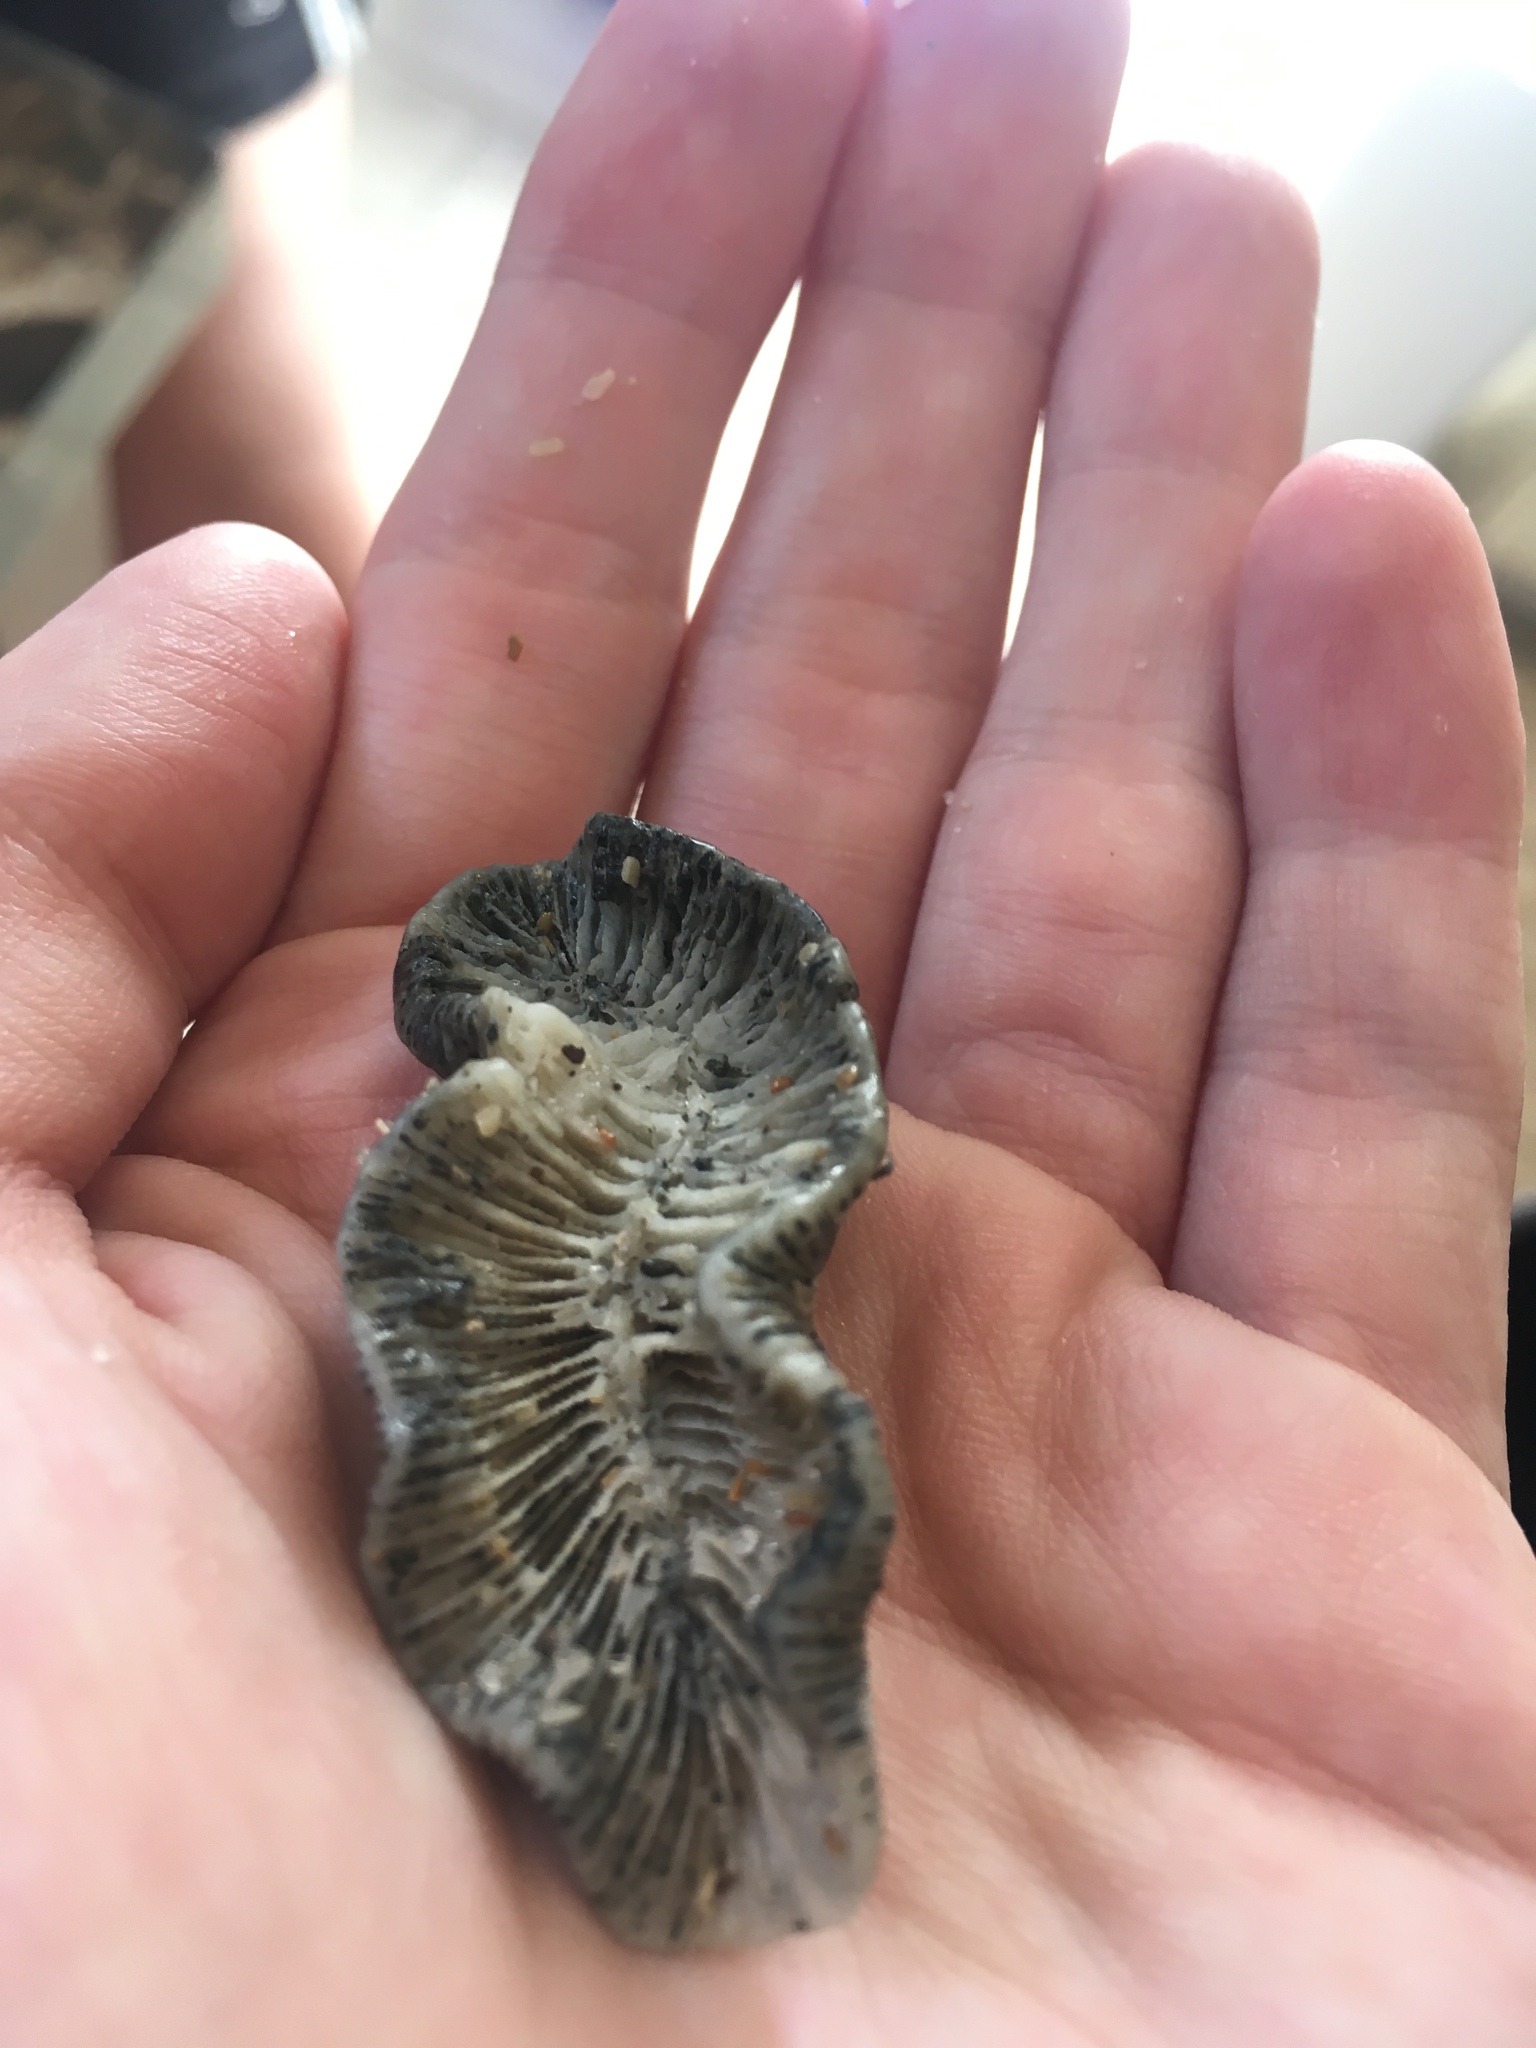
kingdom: Animalia
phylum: Cnidaria
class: Anthozoa
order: Scleractinia
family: Faviidae
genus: Manicina
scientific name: Manicina areolata
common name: Rose coral
